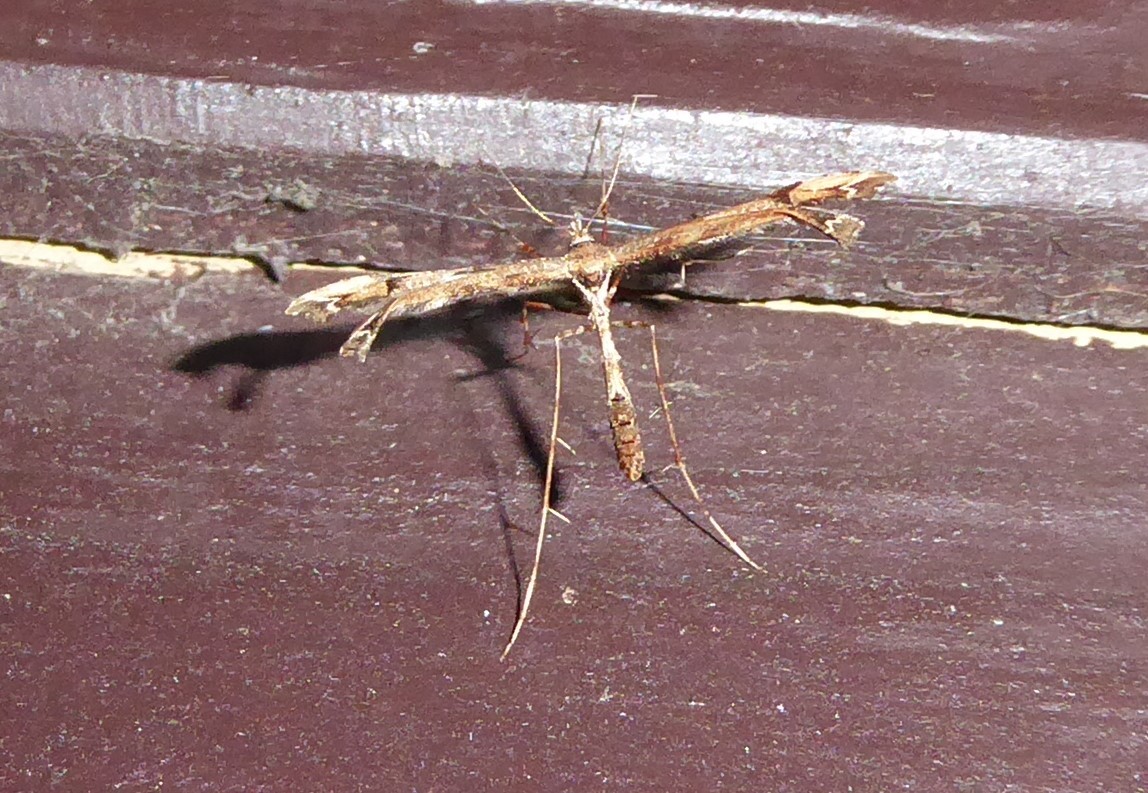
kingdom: Animalia
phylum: Arthropoda
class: Insecta
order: Lepidoptera
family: Pterophoridae
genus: Amblyptilia
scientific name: Amblyptilia repletalis
